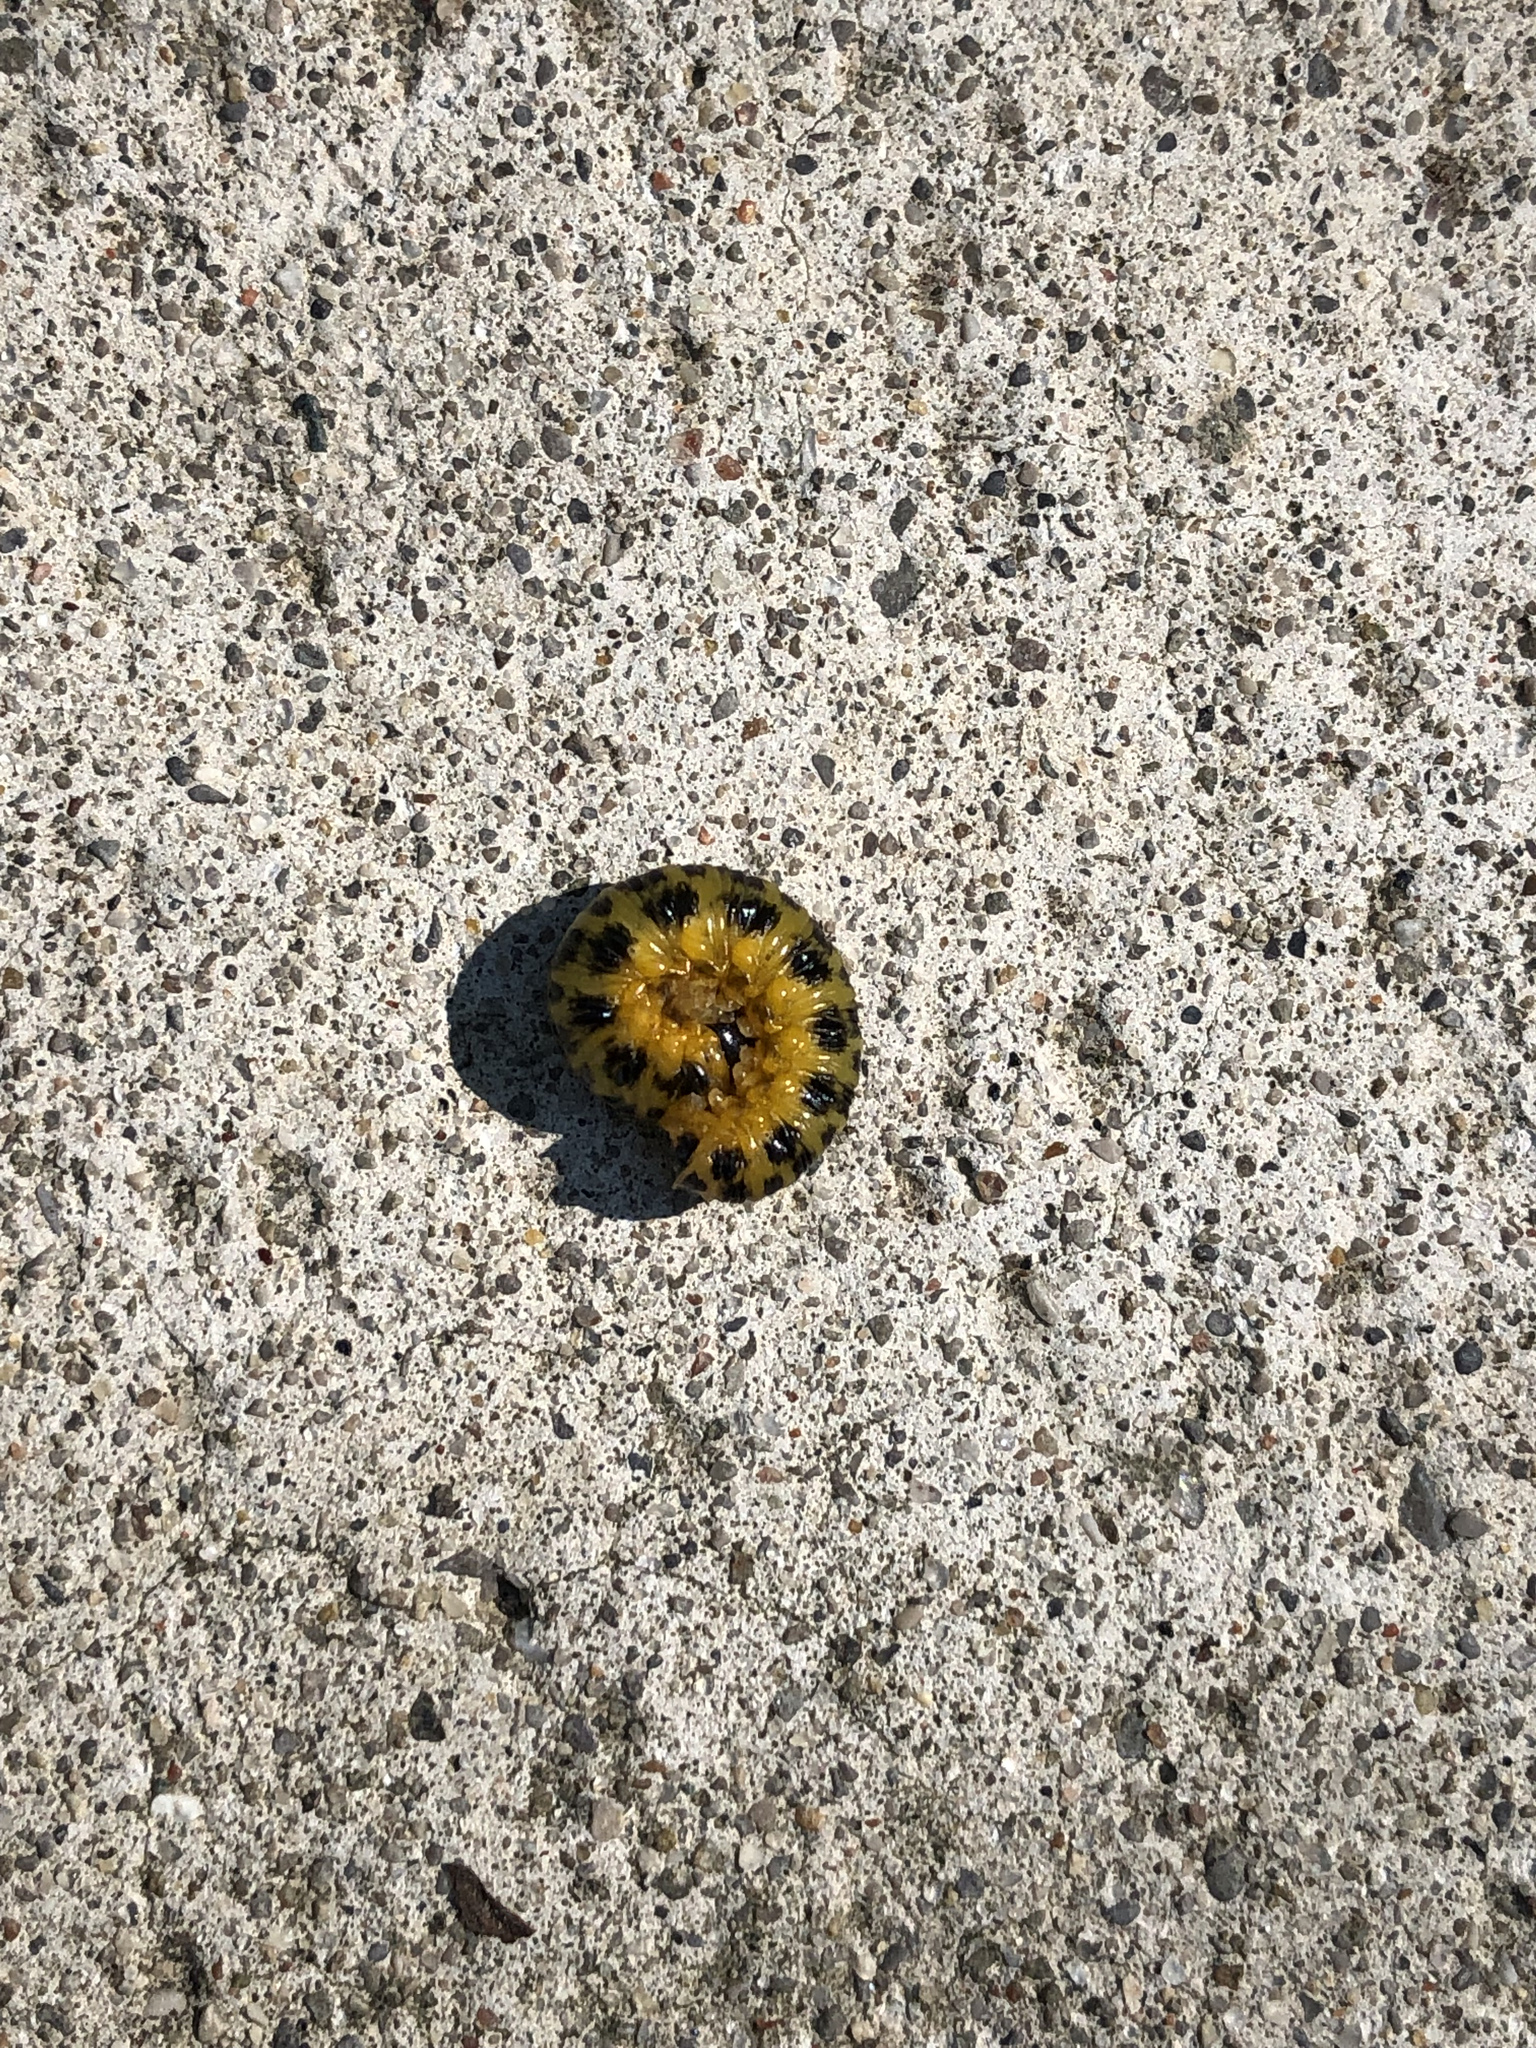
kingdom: Animalia
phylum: Arthropoda
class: Insecta
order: Hymenoptera
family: Tenthredinidae
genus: Macremphytus
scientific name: Macremphytus testaceus
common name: Dogwood sawfly
